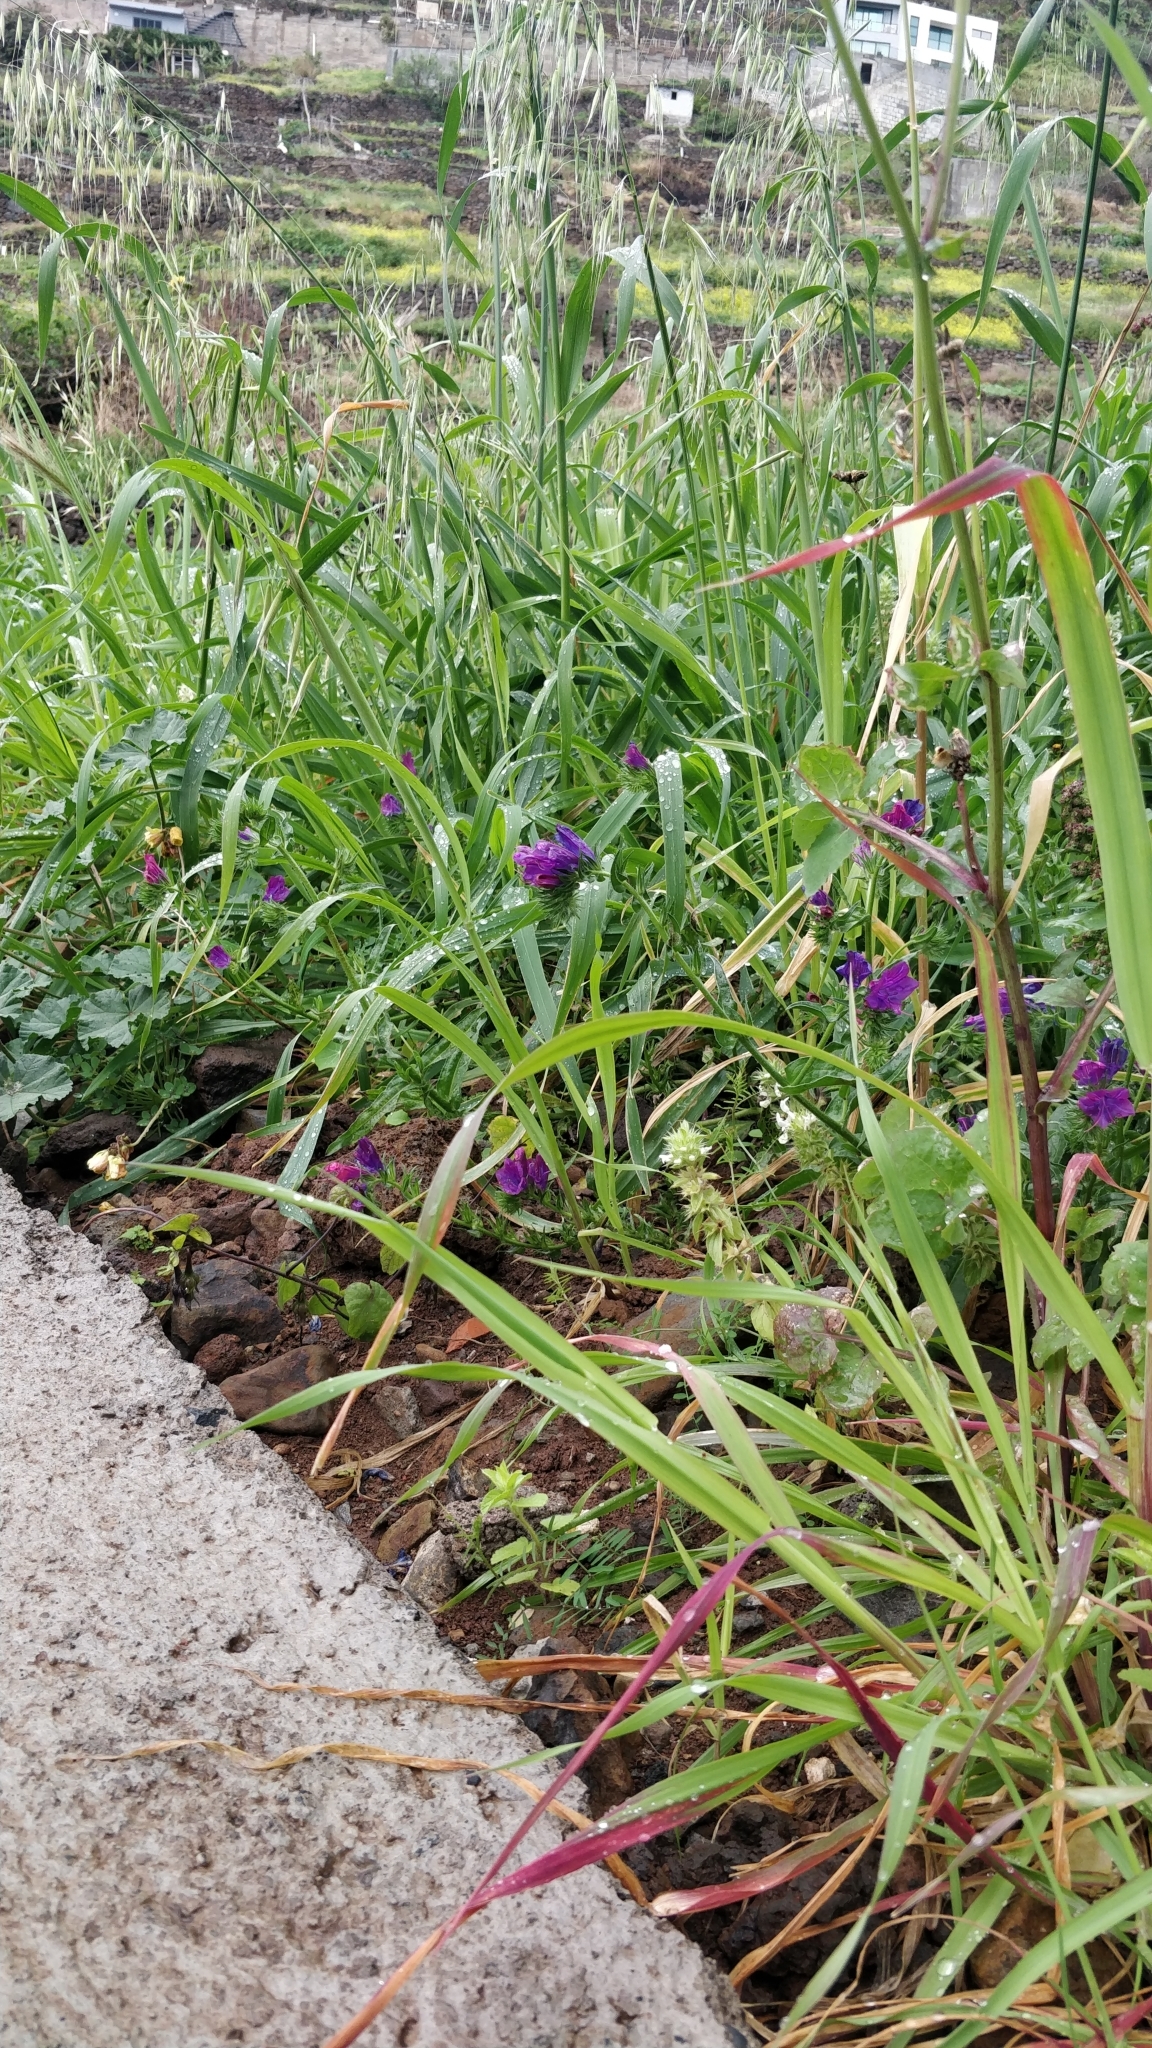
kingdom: Plantae
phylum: Tracheophyta
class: Magnoliopsida
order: Boraginales
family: Boraginaceae
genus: Echium
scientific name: Echium plantagineum
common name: Purple viper's-bugloss
